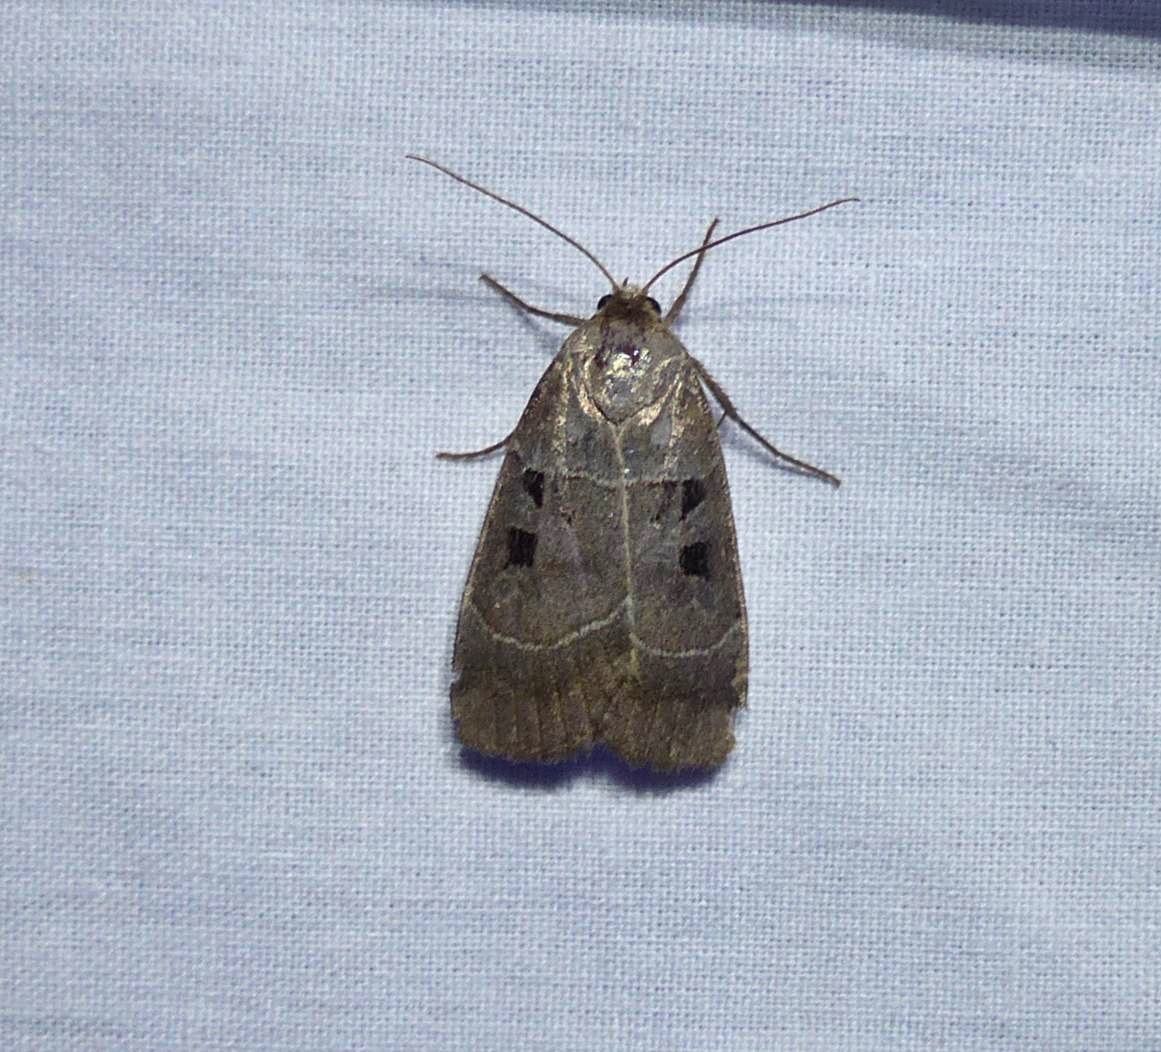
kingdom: Animalia
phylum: Arthropoda
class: Insecta
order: Lepidoptera
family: Noctuidae
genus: Agnorisma
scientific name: Agnorisma bugrai
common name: Collared dart
